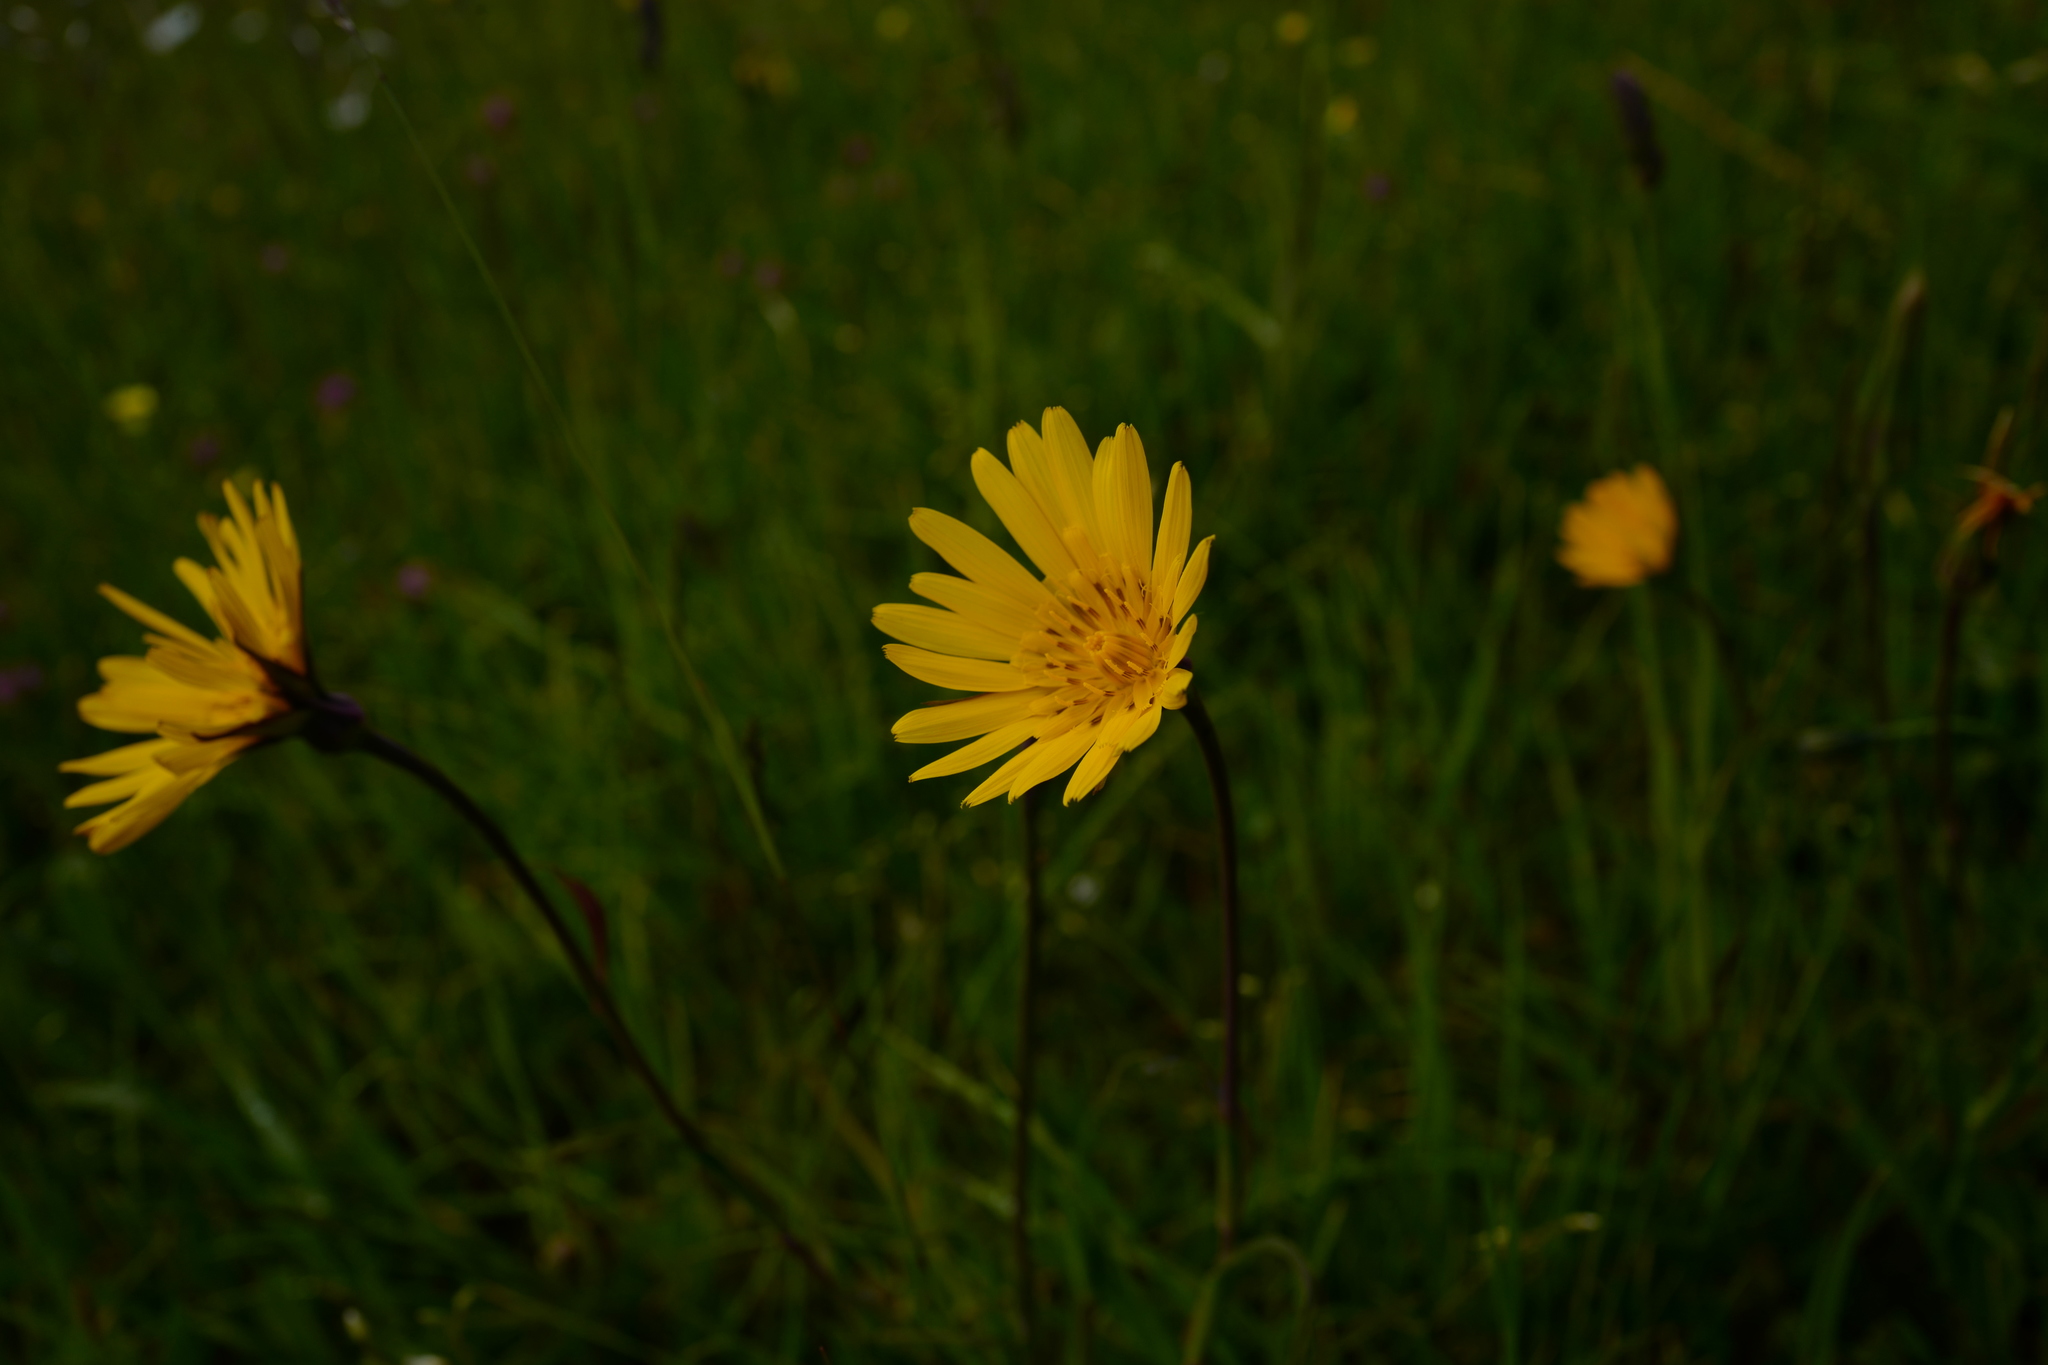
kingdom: Plantae
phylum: Tracheophyta
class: Magnoliopsida
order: Asterales
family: Asteraceae
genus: Tragopogon
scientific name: Tragopogon orientalis
